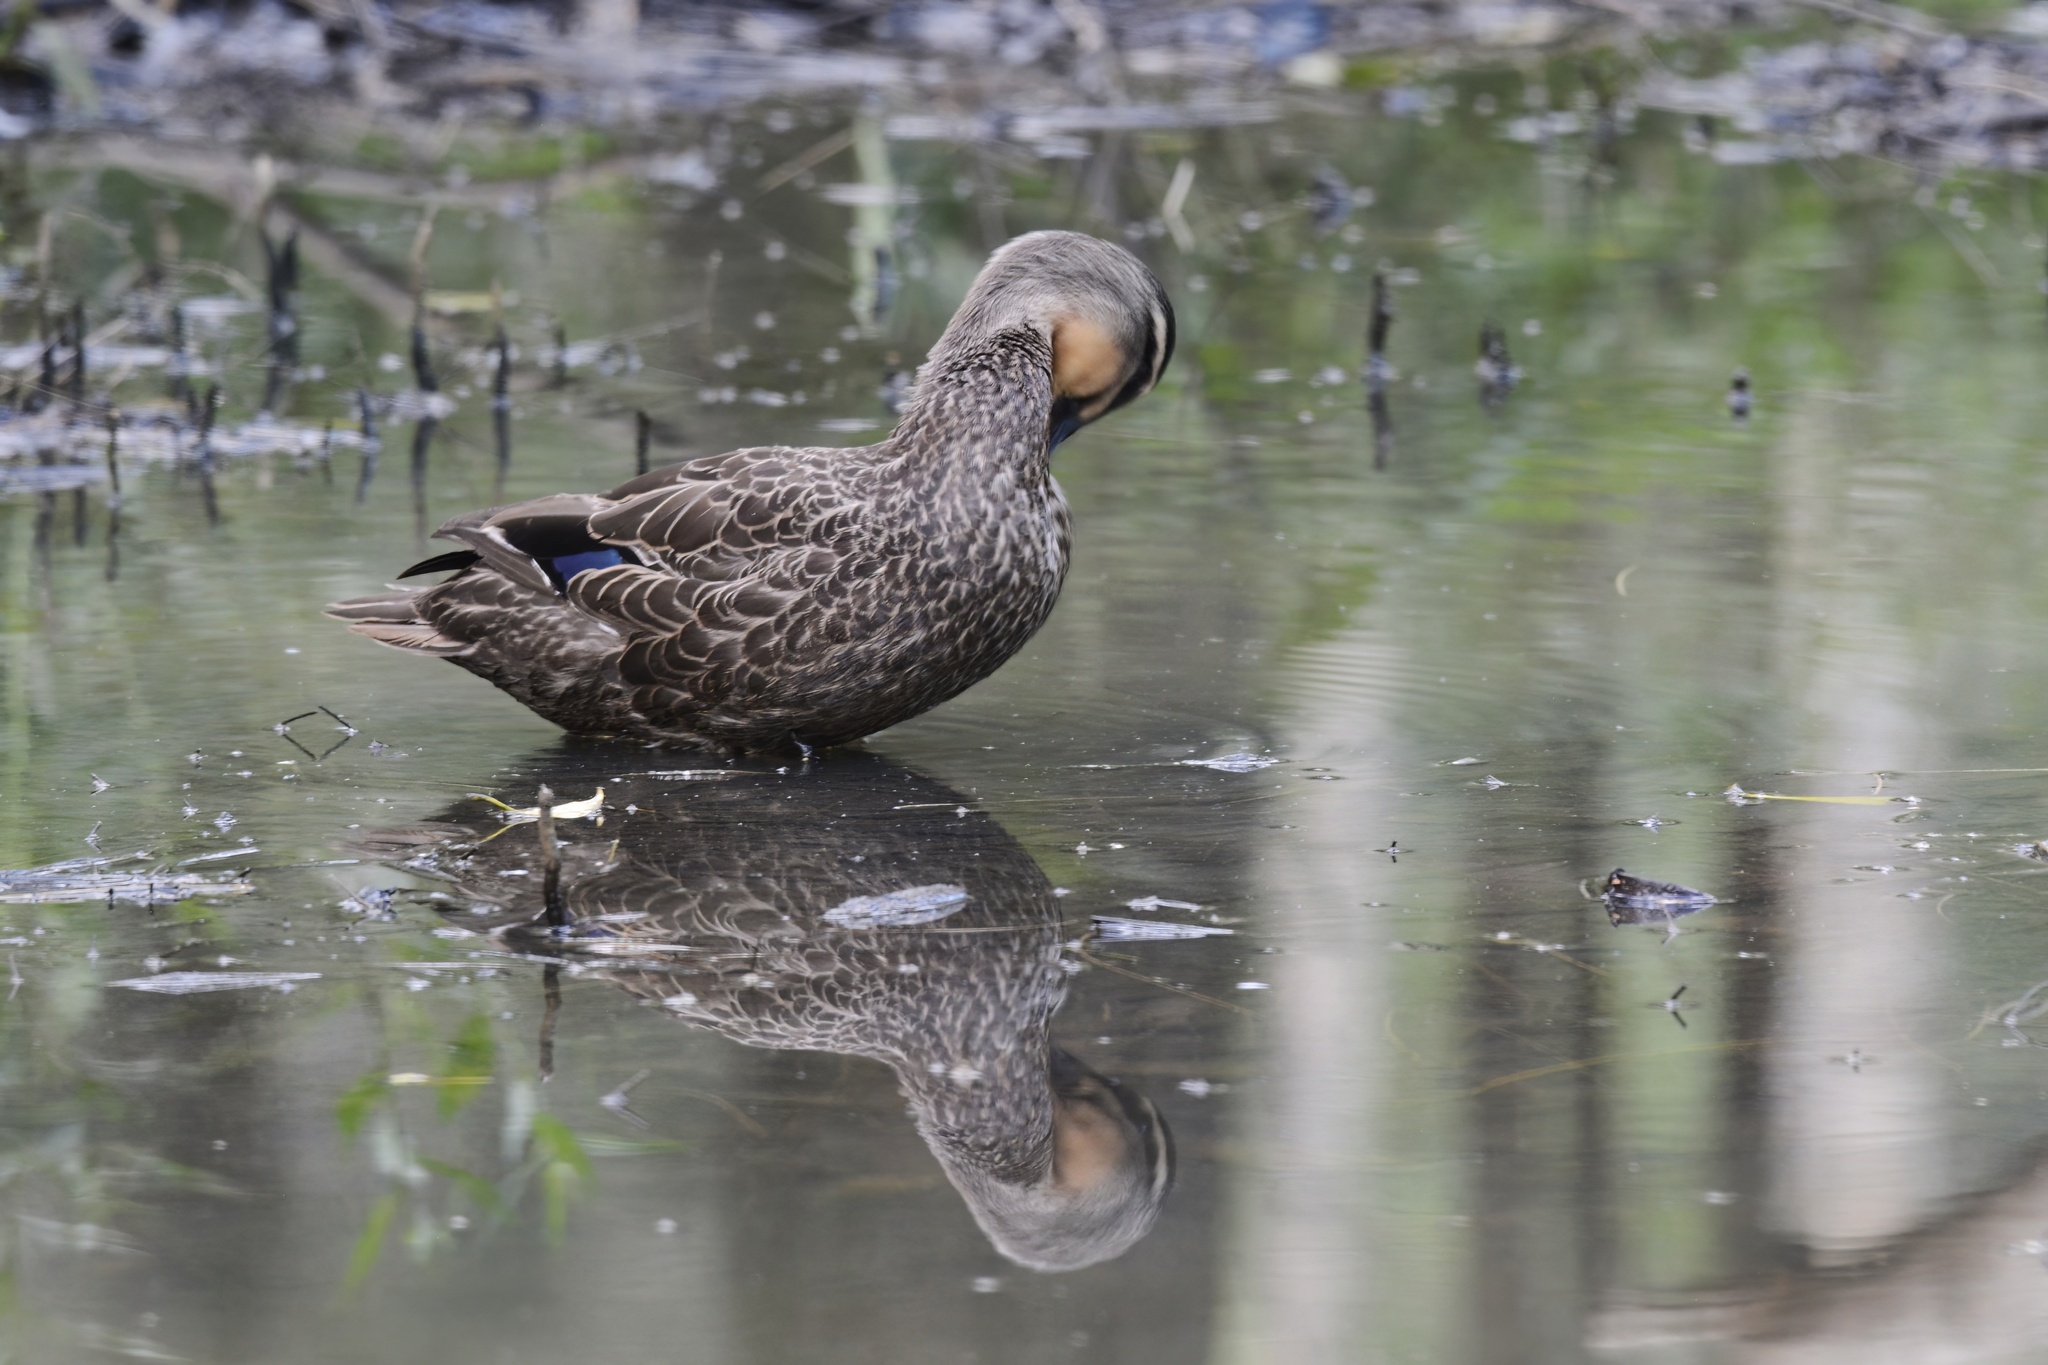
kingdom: Animalia
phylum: Chordata
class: Aves
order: Anseriformes
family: Anatidae
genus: Anas
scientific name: Anas
